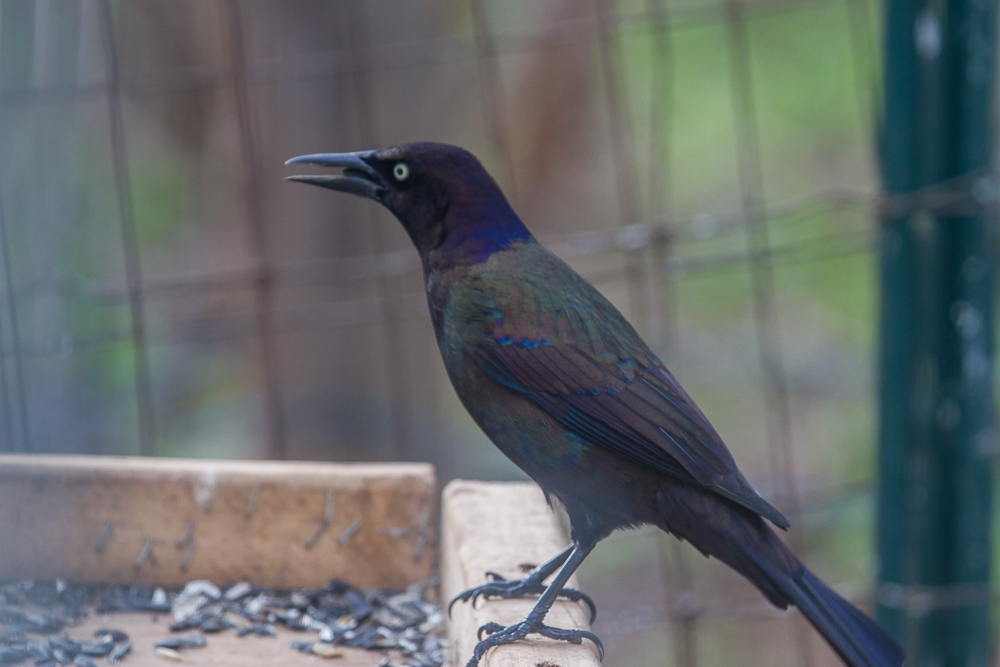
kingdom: Animalia
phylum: Chordata
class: Aves
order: Passeriformes
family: Icteridae
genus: Quiscalus
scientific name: Quiscalus quiscula
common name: Common grackle
